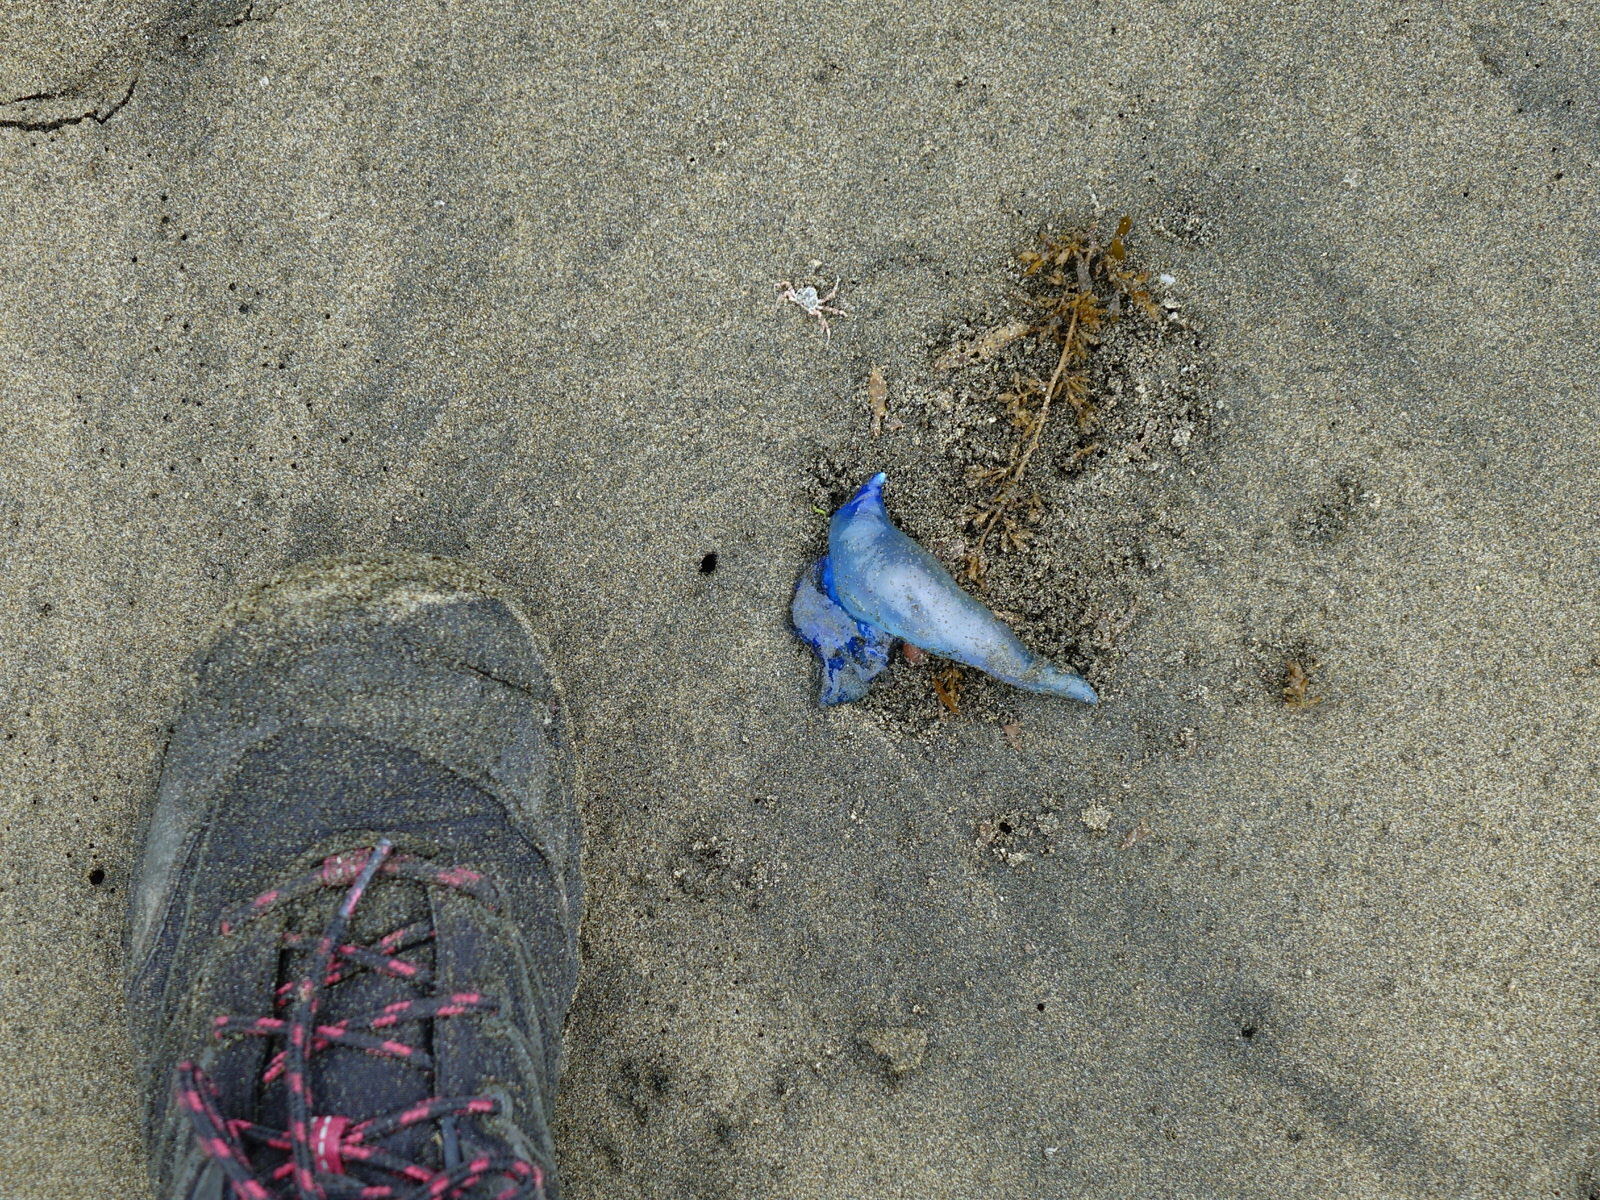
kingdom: Animalia
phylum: Cnidaria
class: Hydrozoa
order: Siphonophorae
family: Physaliidae
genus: Physalia
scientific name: Physalia physalis
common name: Portuguese man-of-war
